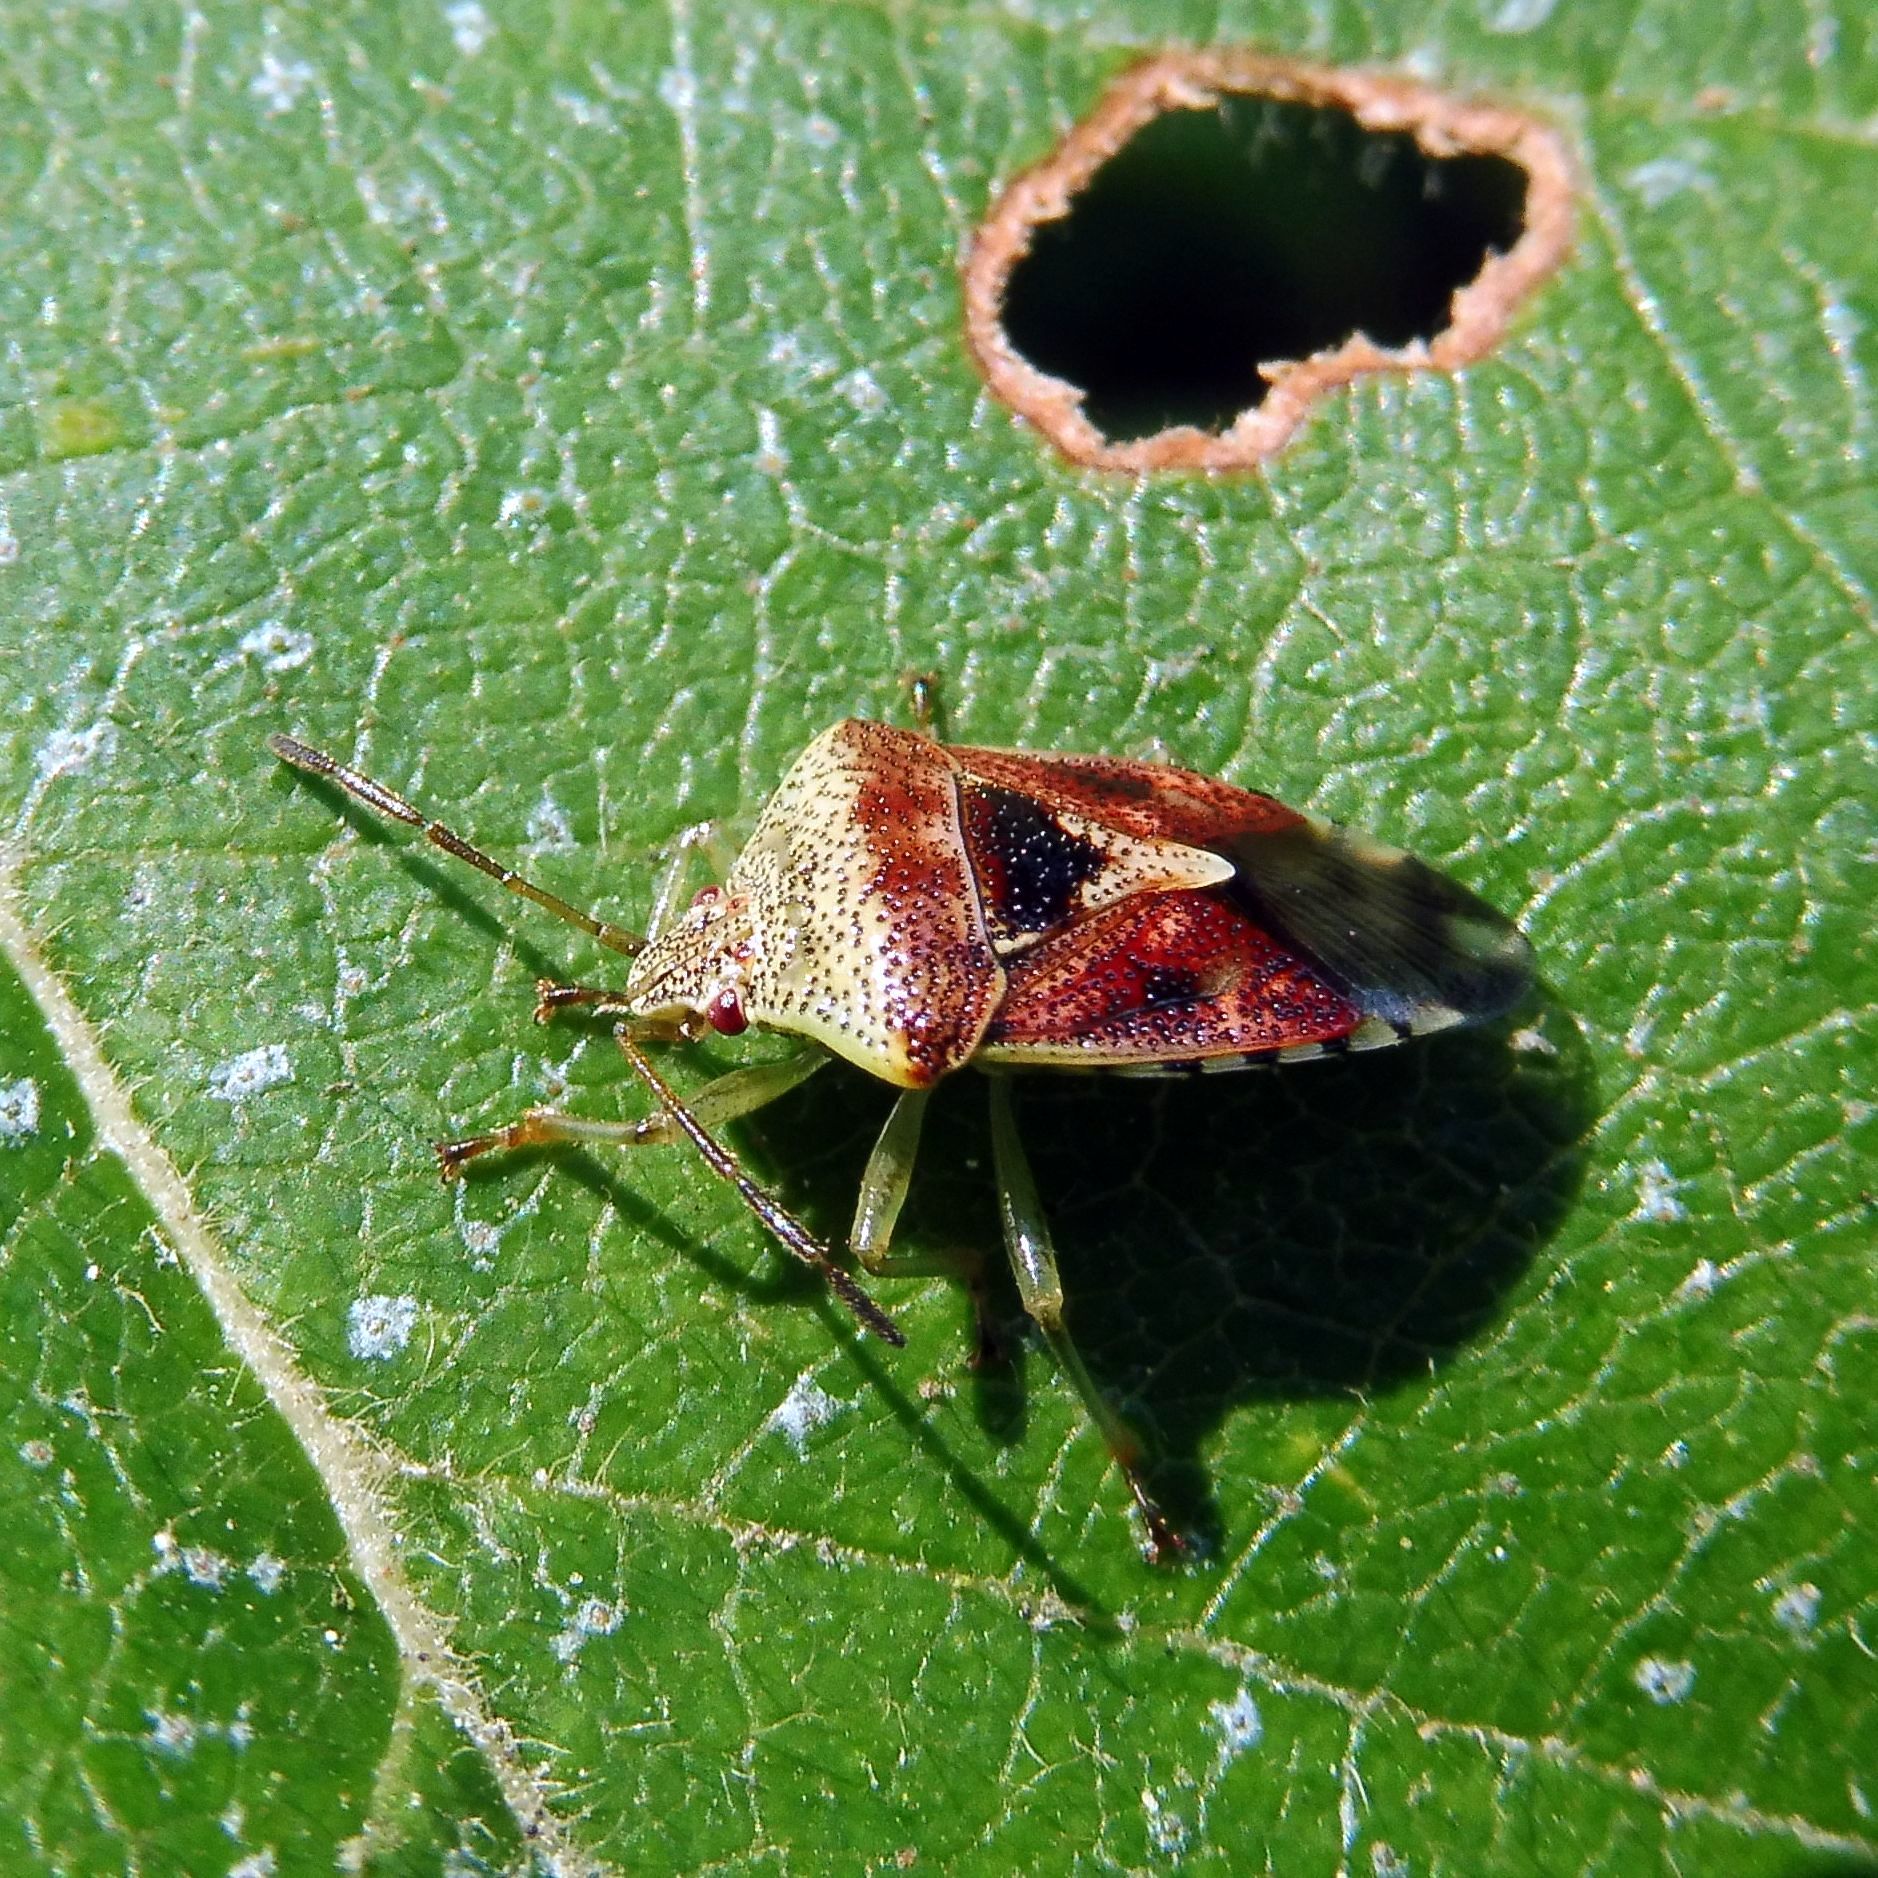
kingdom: Animalia
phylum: Arthropoda
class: Insecta
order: Hemiptera
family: Acanthosomatidae
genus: Elasmucha
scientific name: Elasmucha grisea
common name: Parent bug
